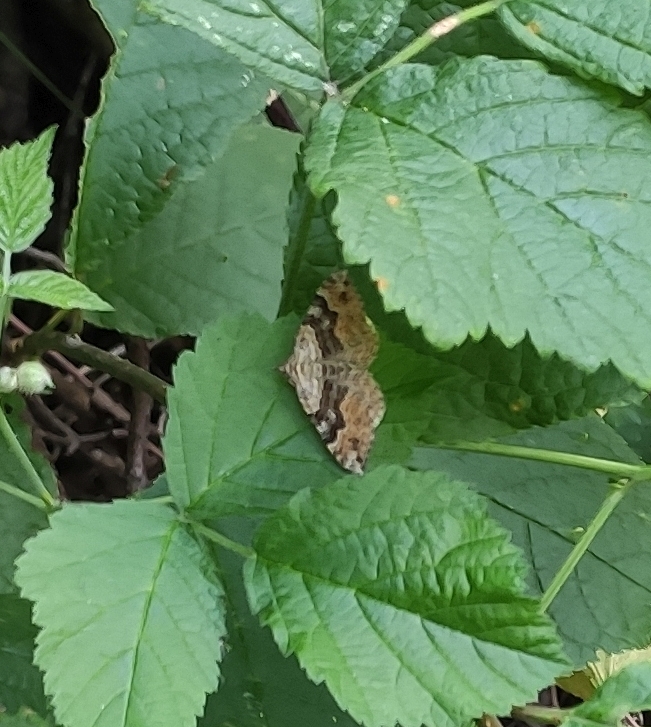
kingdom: Animalia
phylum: Arthropoda
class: Insecta
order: Lepidoptera
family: Geometridae
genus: Xanthorhoe
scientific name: Xanthorhoe quadrifasiata
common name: Large twin-spot carpet
